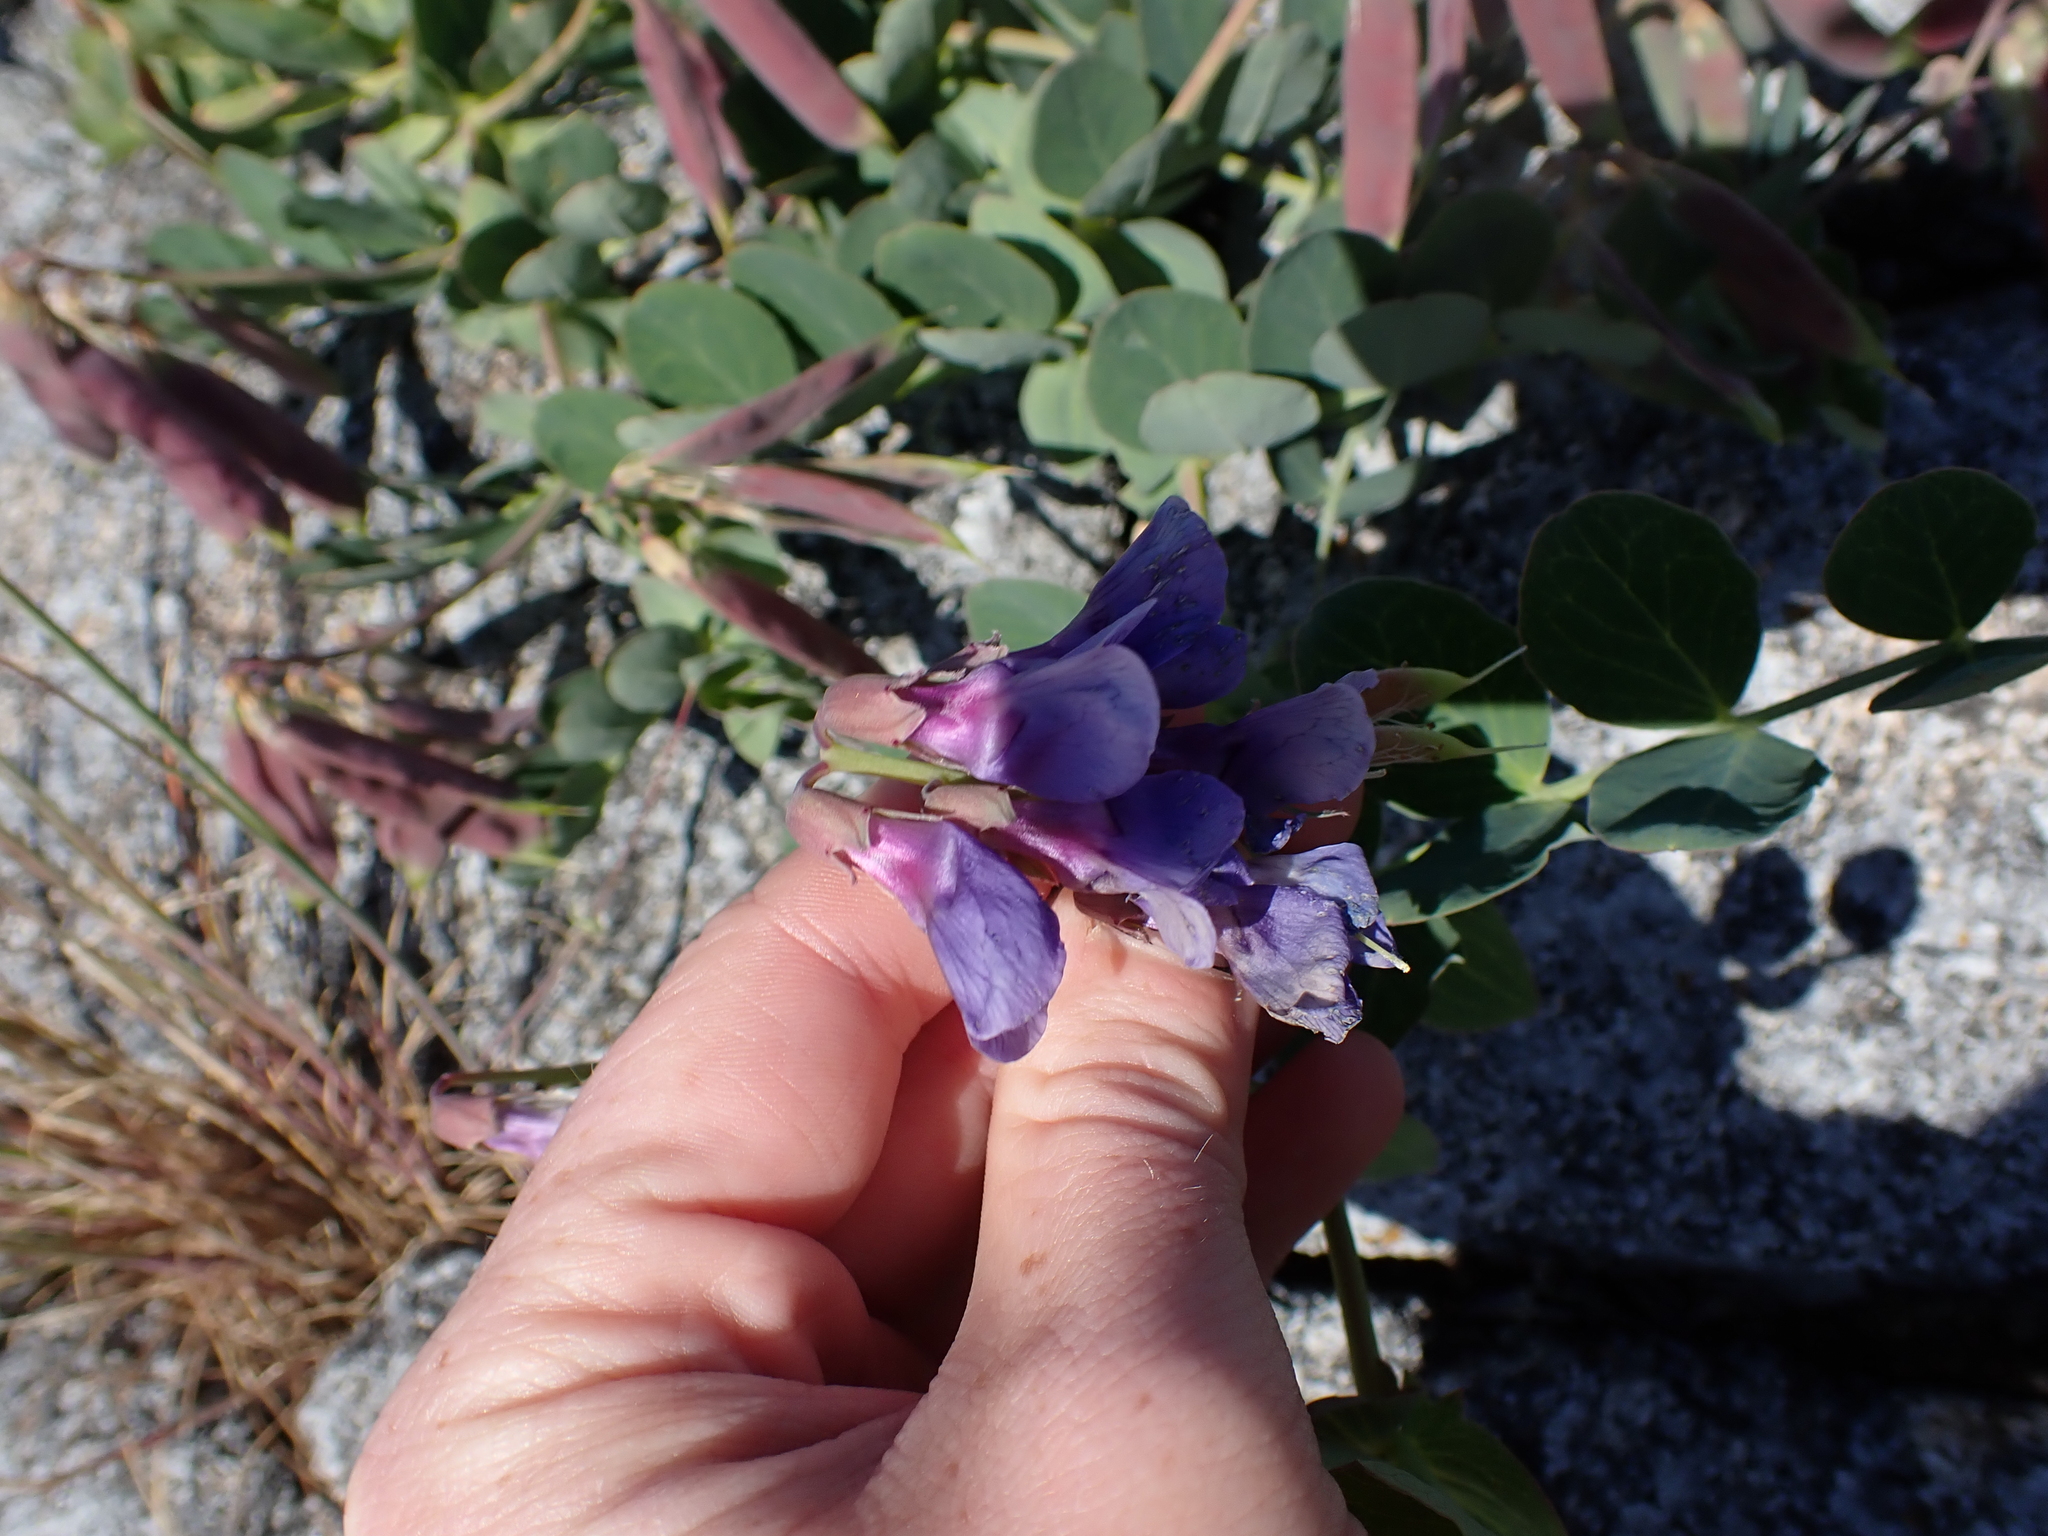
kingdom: Plantae
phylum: Tracheophyta
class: Magnoliopsida
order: Fabales
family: Fabaceae
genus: Lathyrus
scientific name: Lathyrus japonicus
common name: Sea pea
